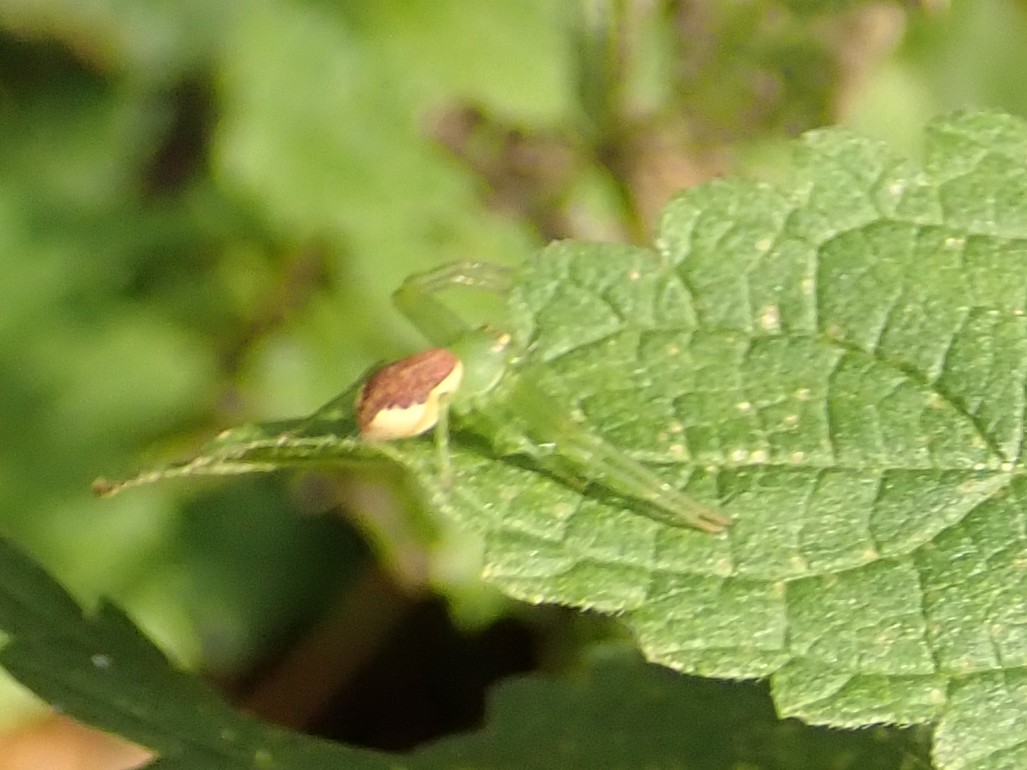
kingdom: Animalia
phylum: Arthropoda
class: Arachnida
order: Araneae
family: Thomisidae
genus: Diaea
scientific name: Diaea dorsata
